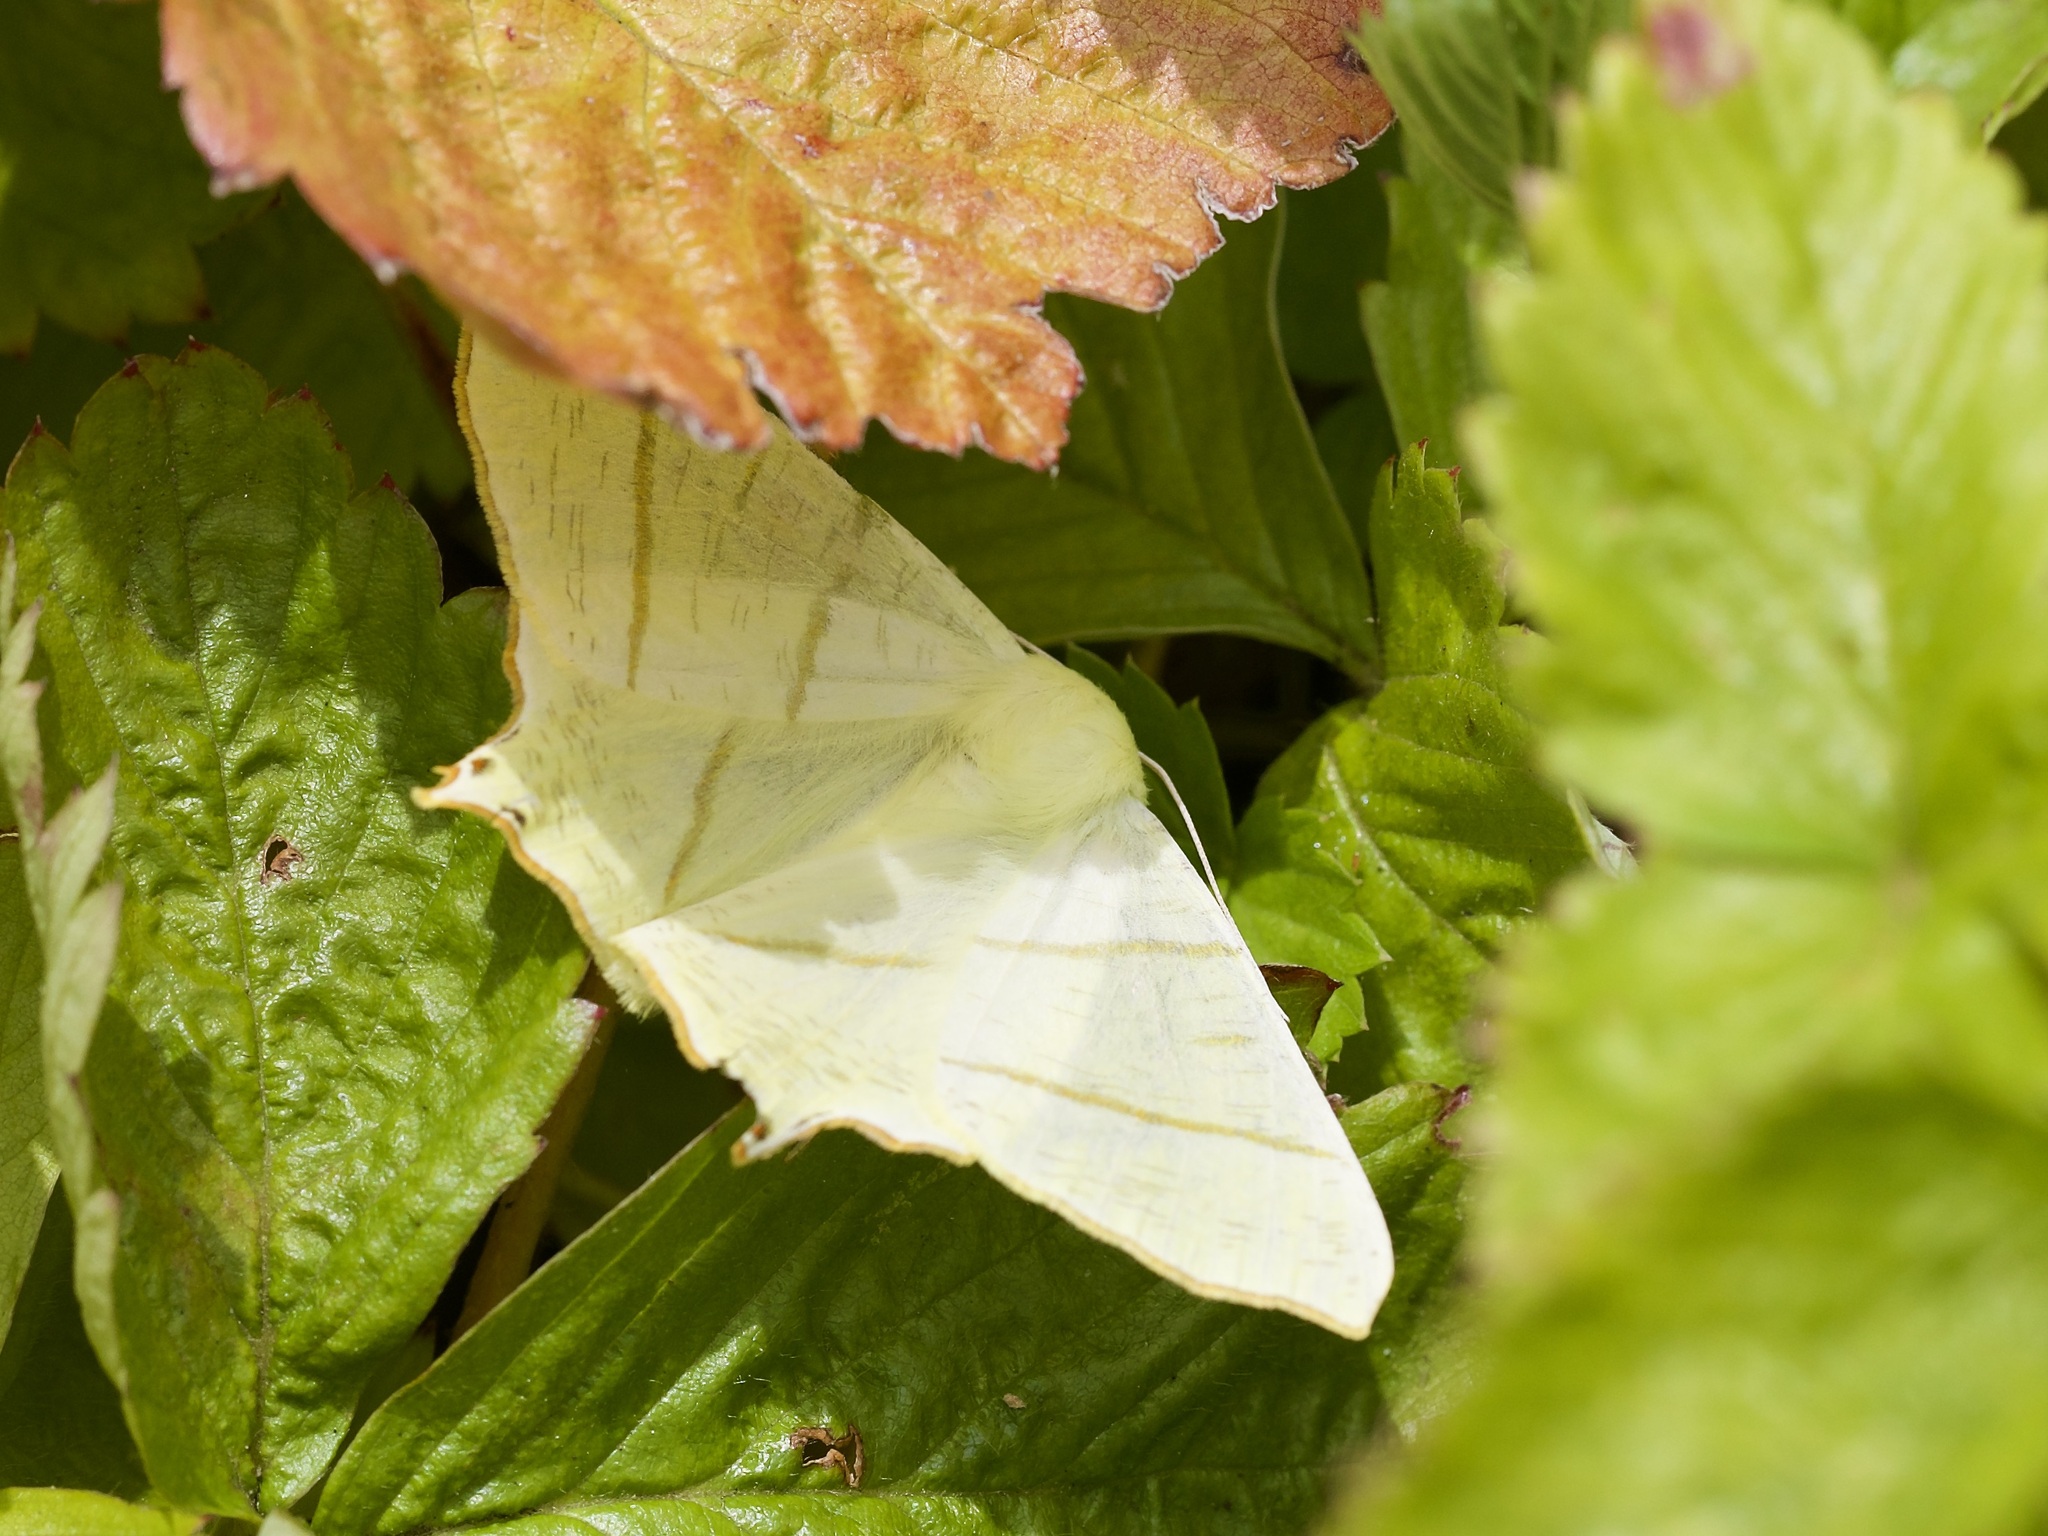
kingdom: Animalia
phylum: Arthropoda
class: Insecta
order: Lepidoptera
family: Geometridae
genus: Ourapteryx
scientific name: Ourapteryx sambucaria
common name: Swallow-tailed moth
